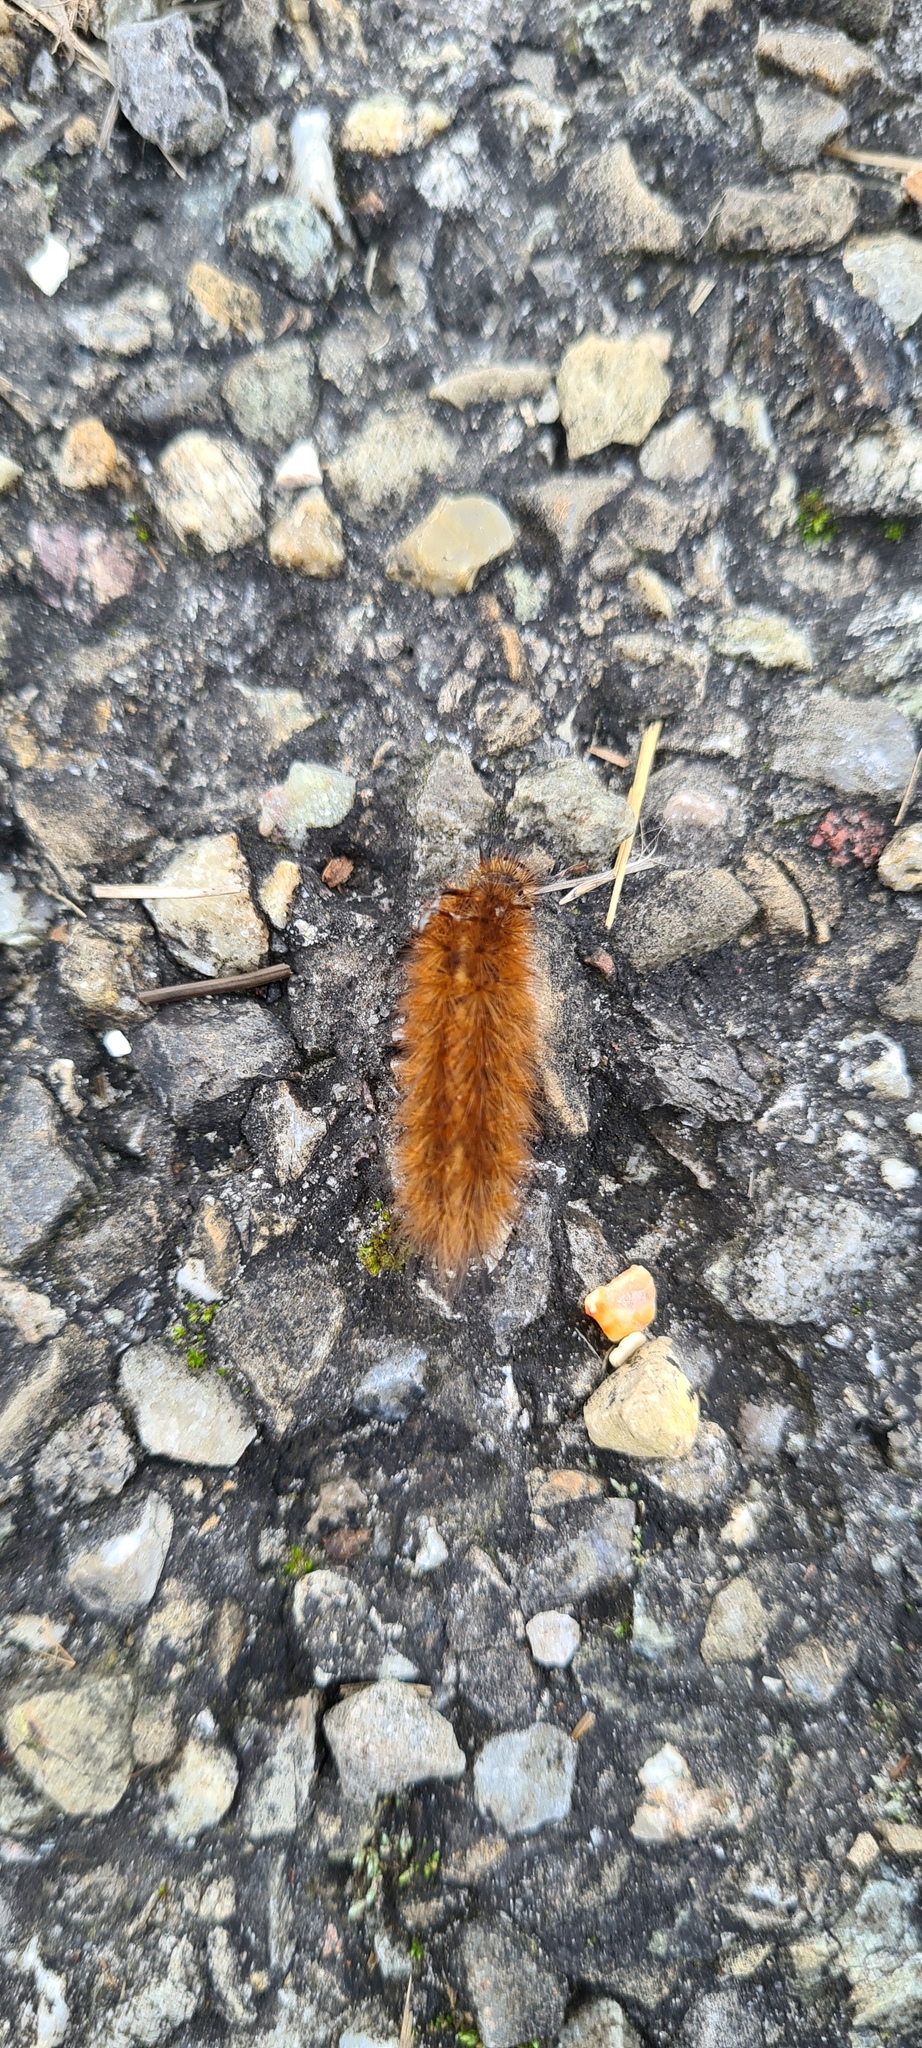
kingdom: Animalia
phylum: Arthropoda
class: Insecta
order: Lepidoptera
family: Erebidae
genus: Phragmatobia
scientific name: Phragmatobia fuliginosa
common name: Ruby tiger
